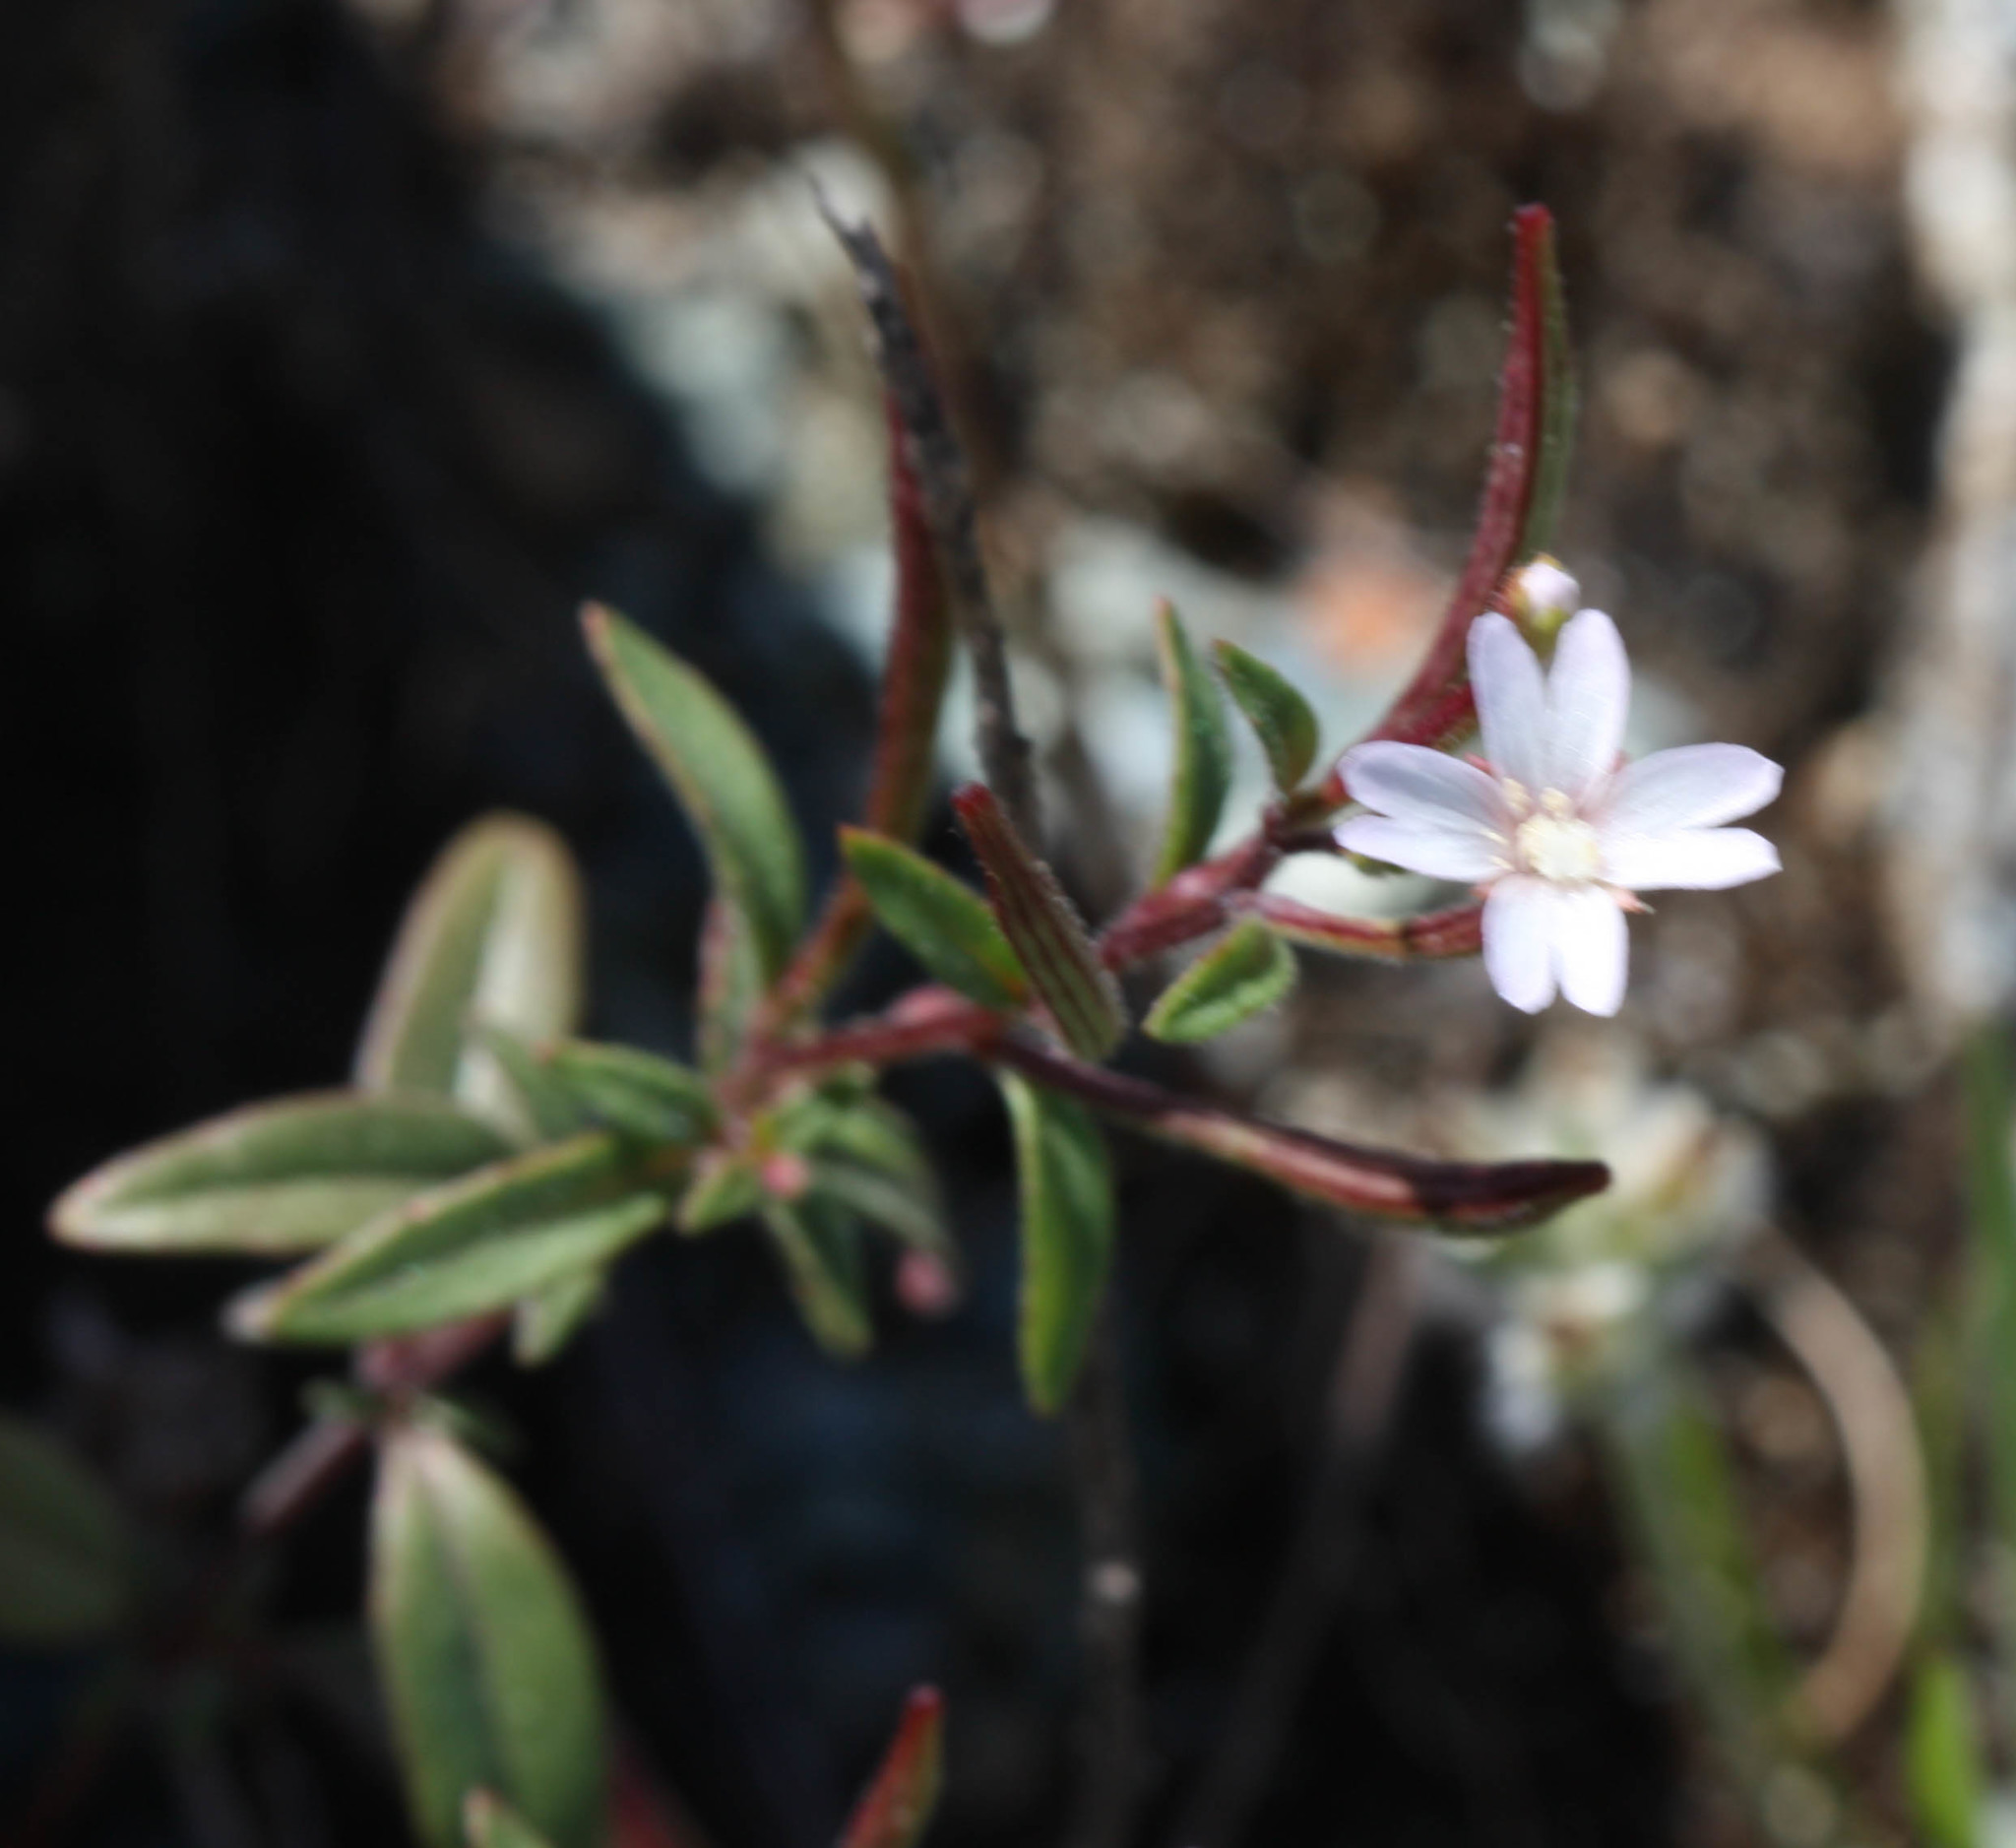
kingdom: Plantae
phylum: Tracheophyta
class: Magnoliopsida
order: Myrtales
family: Onagraceae
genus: Epilobium
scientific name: Epilobium minutum
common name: Chaparral willowherb
